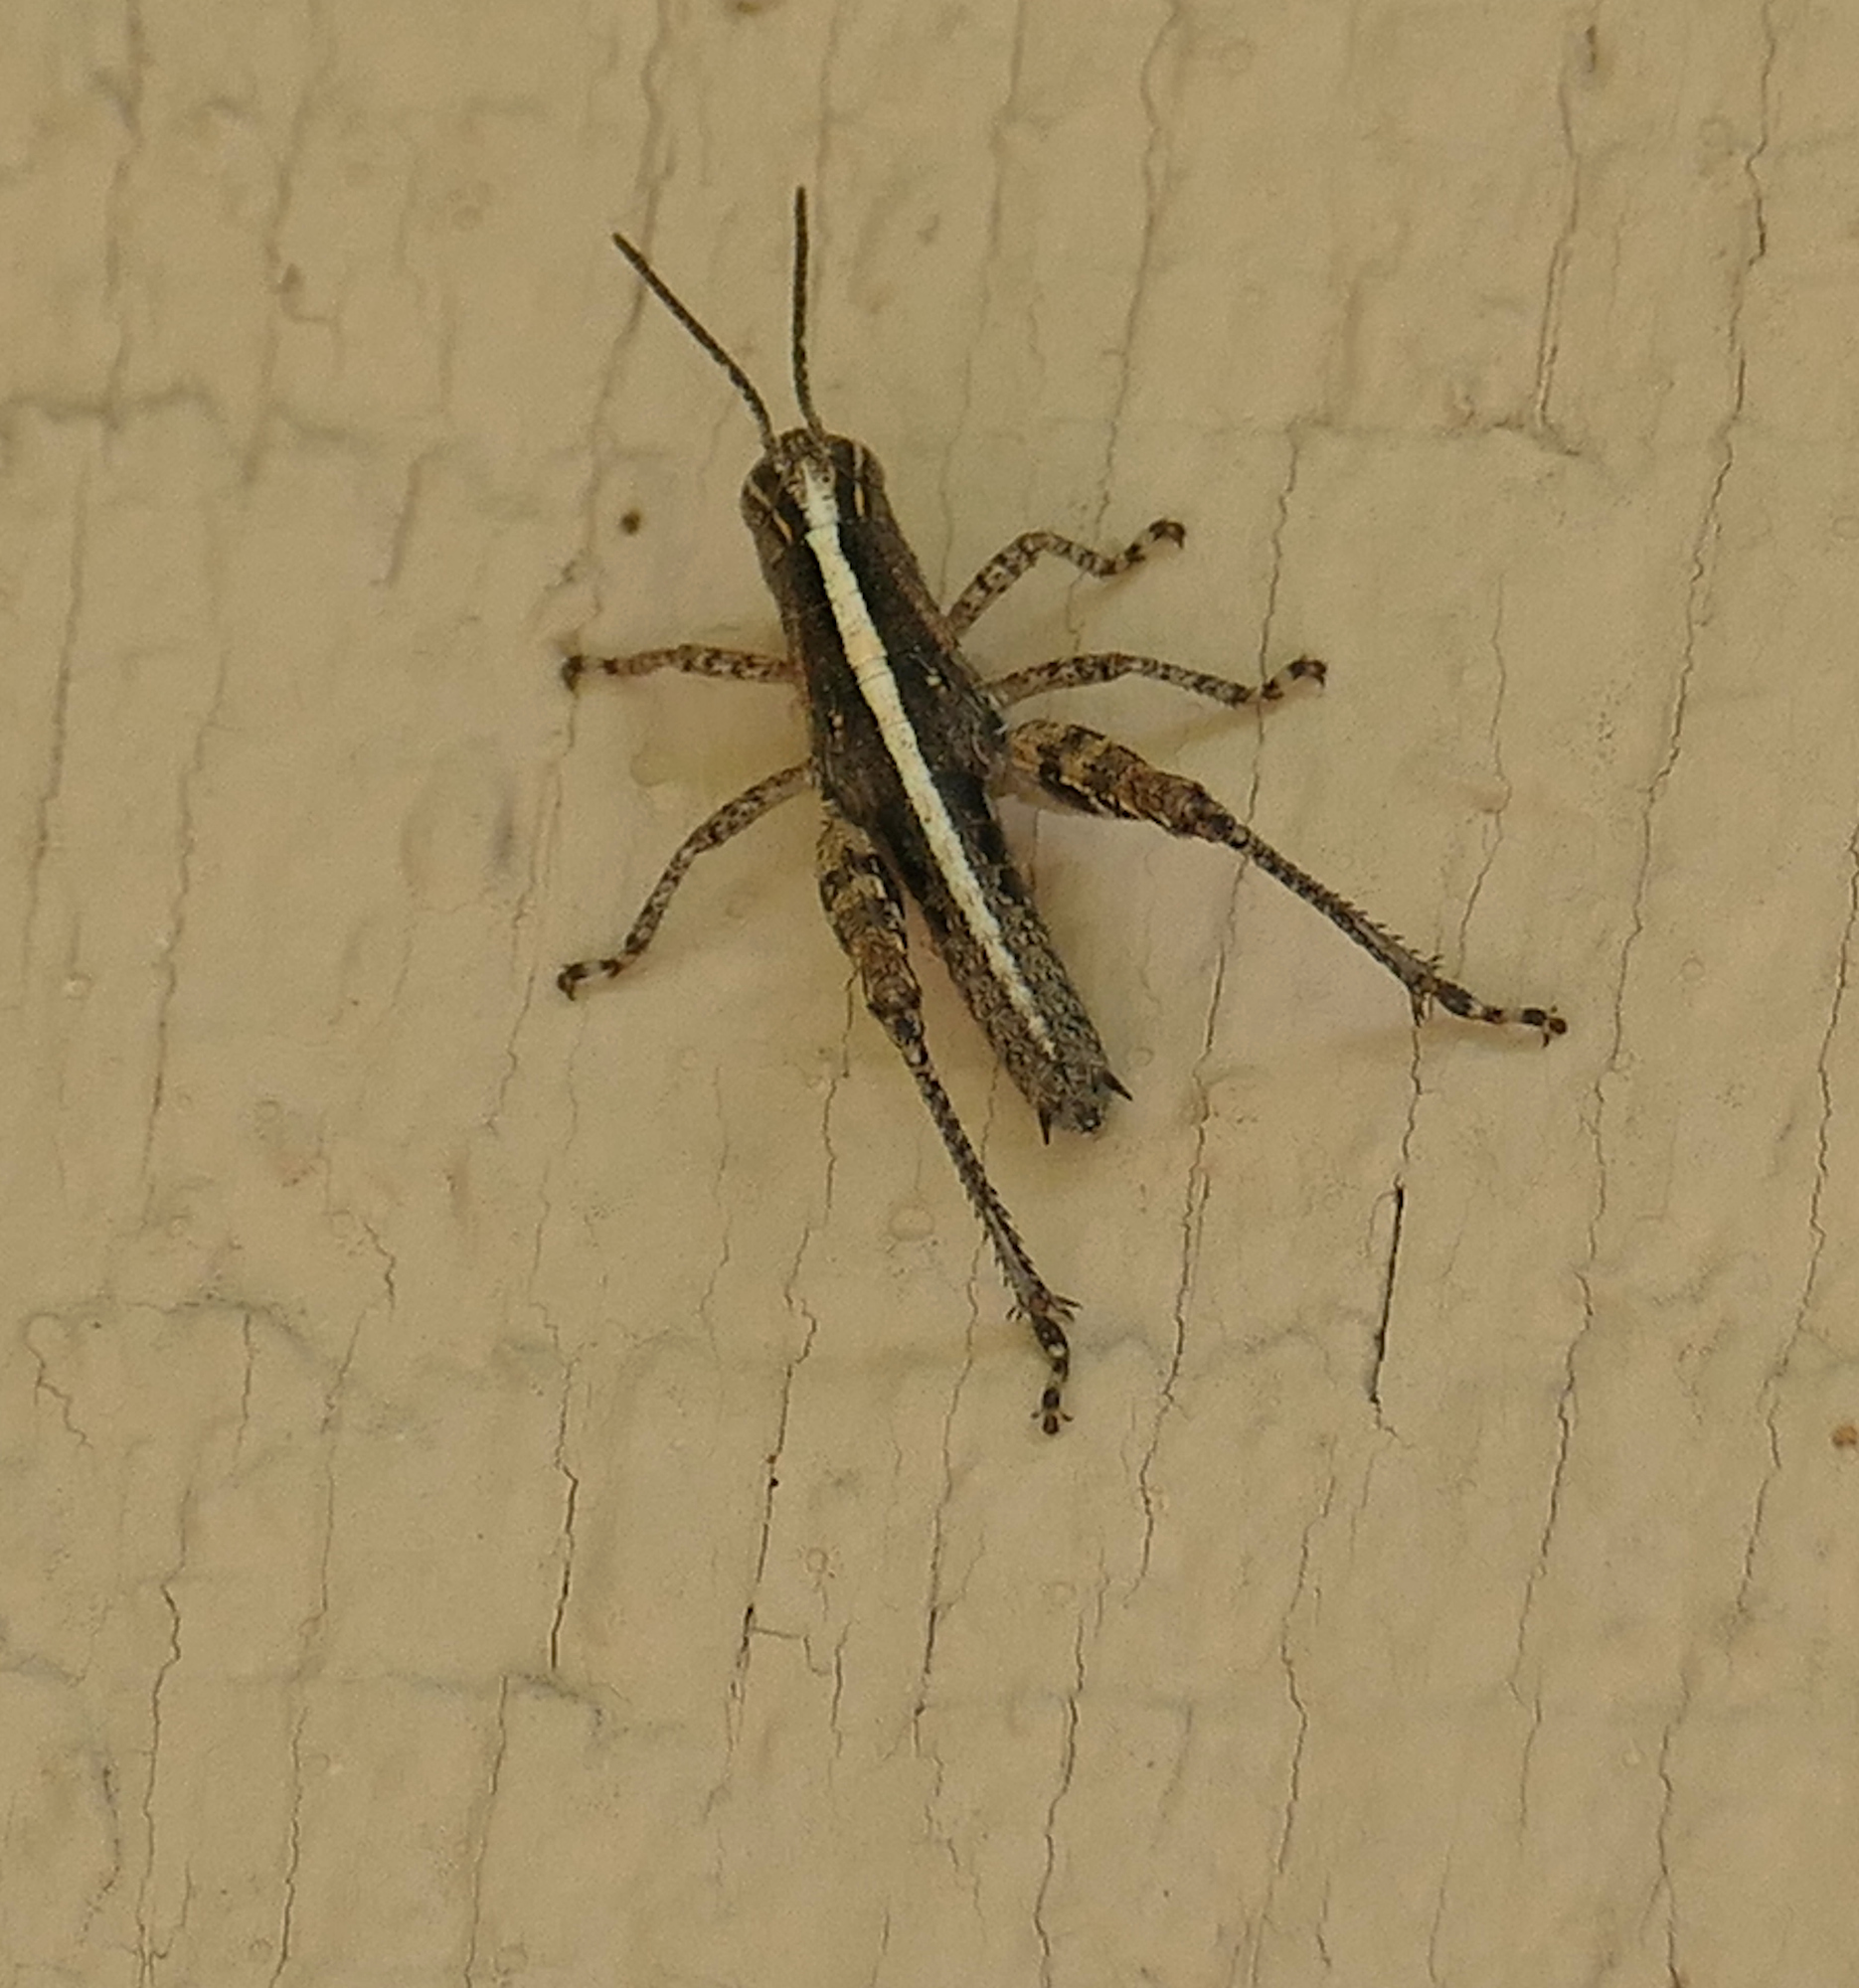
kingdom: Animalia
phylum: Arthropoda
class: Insecta
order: Orthoptera
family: Acrididae
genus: Barytettix
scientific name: Barytettix humphreysii
